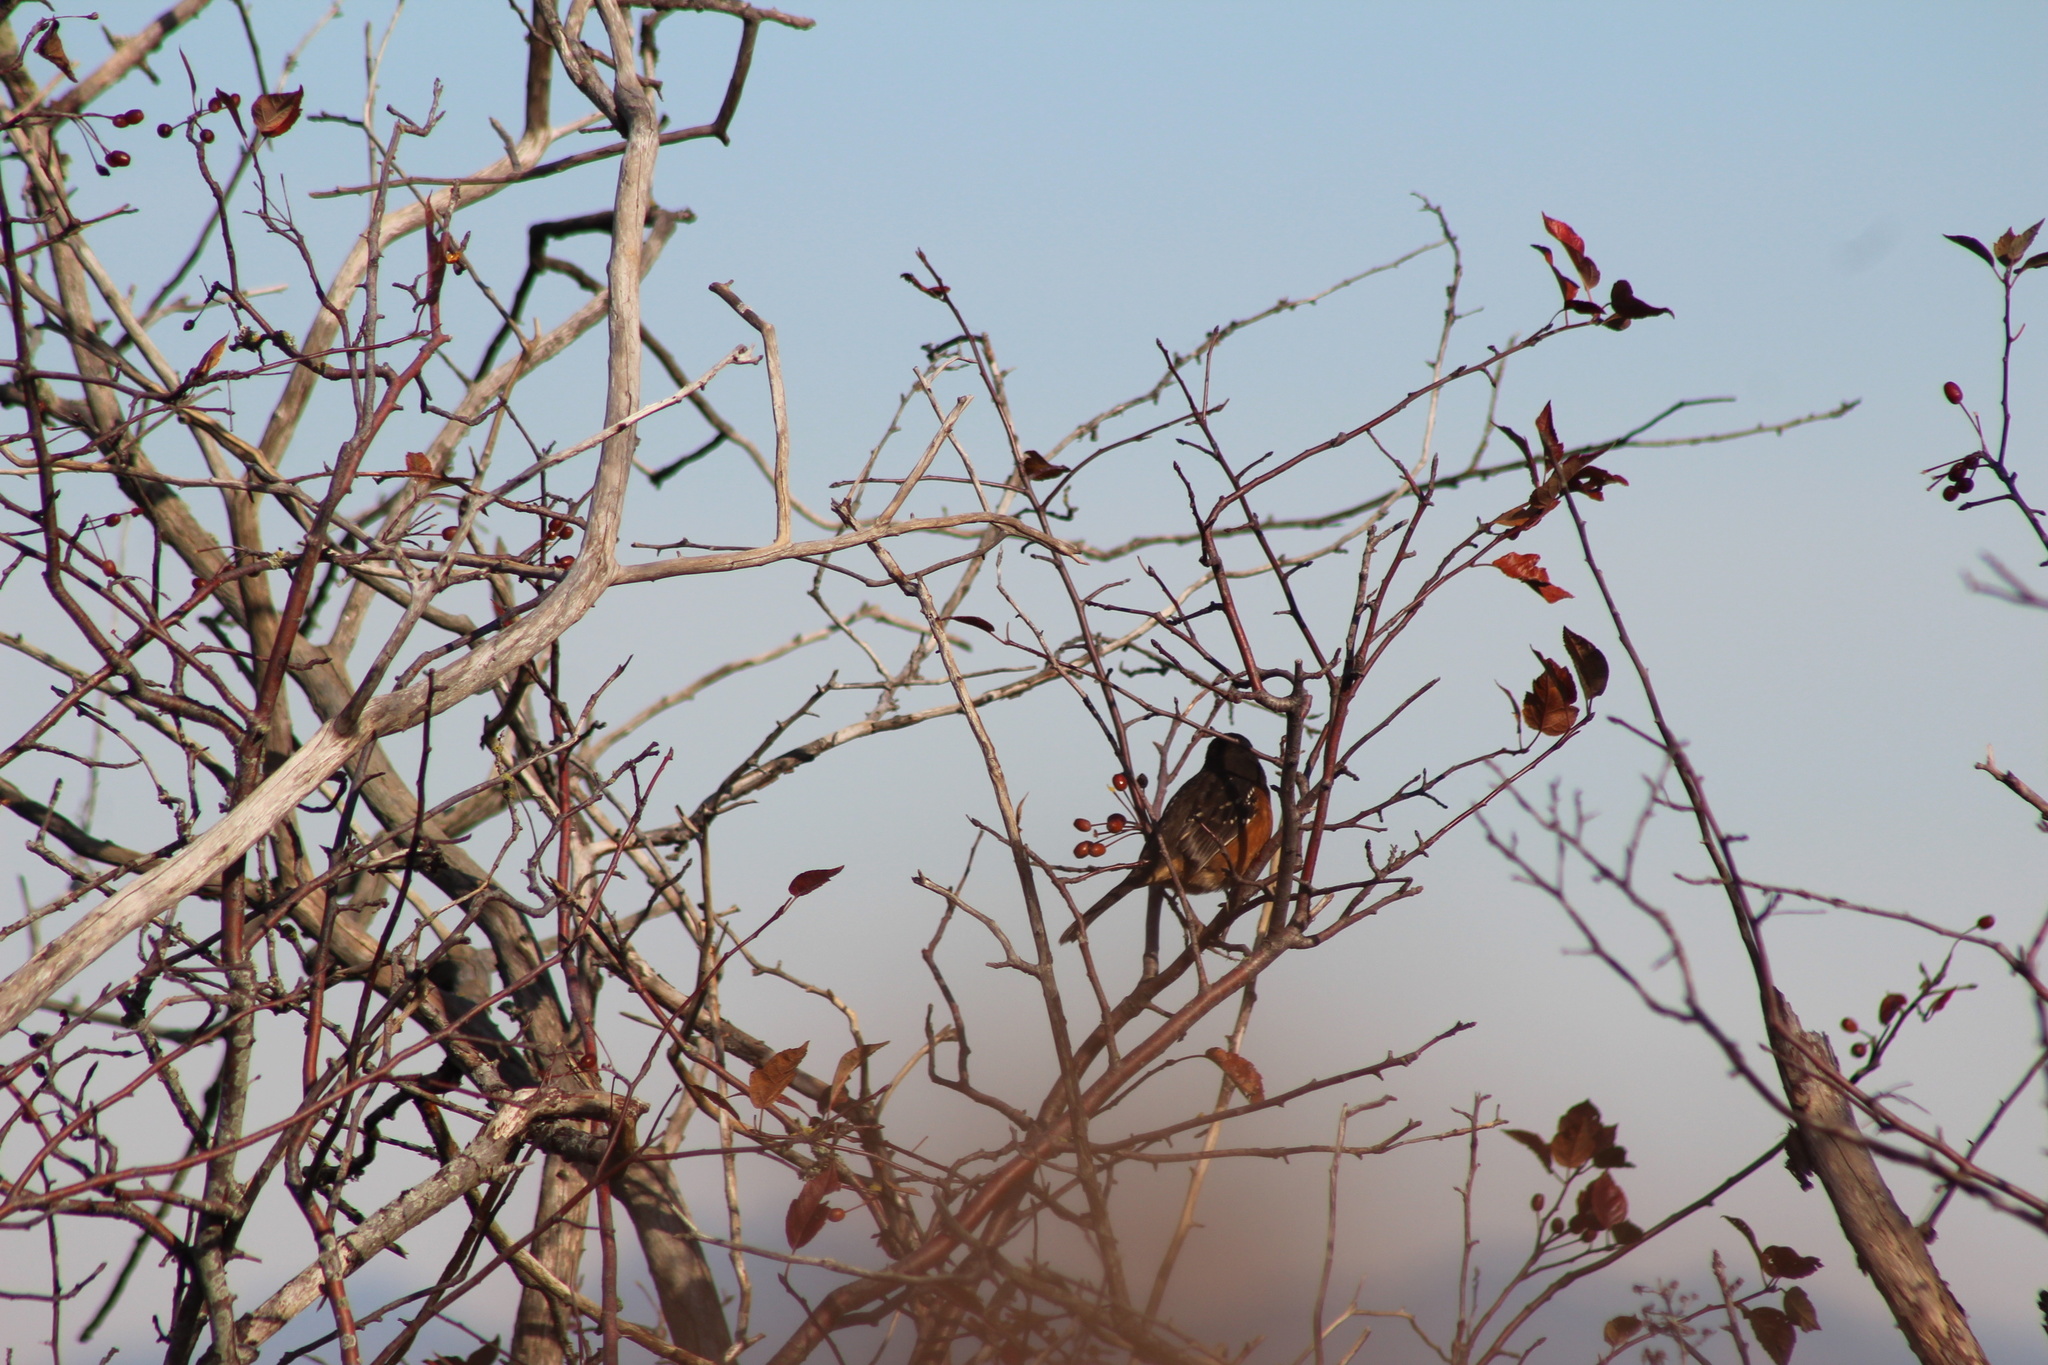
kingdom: Animalia
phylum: Chordata
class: Aves
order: Passeriformes
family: Passerellidae
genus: Pipilo
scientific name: Pipilo maculatus
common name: Spotted towhee
